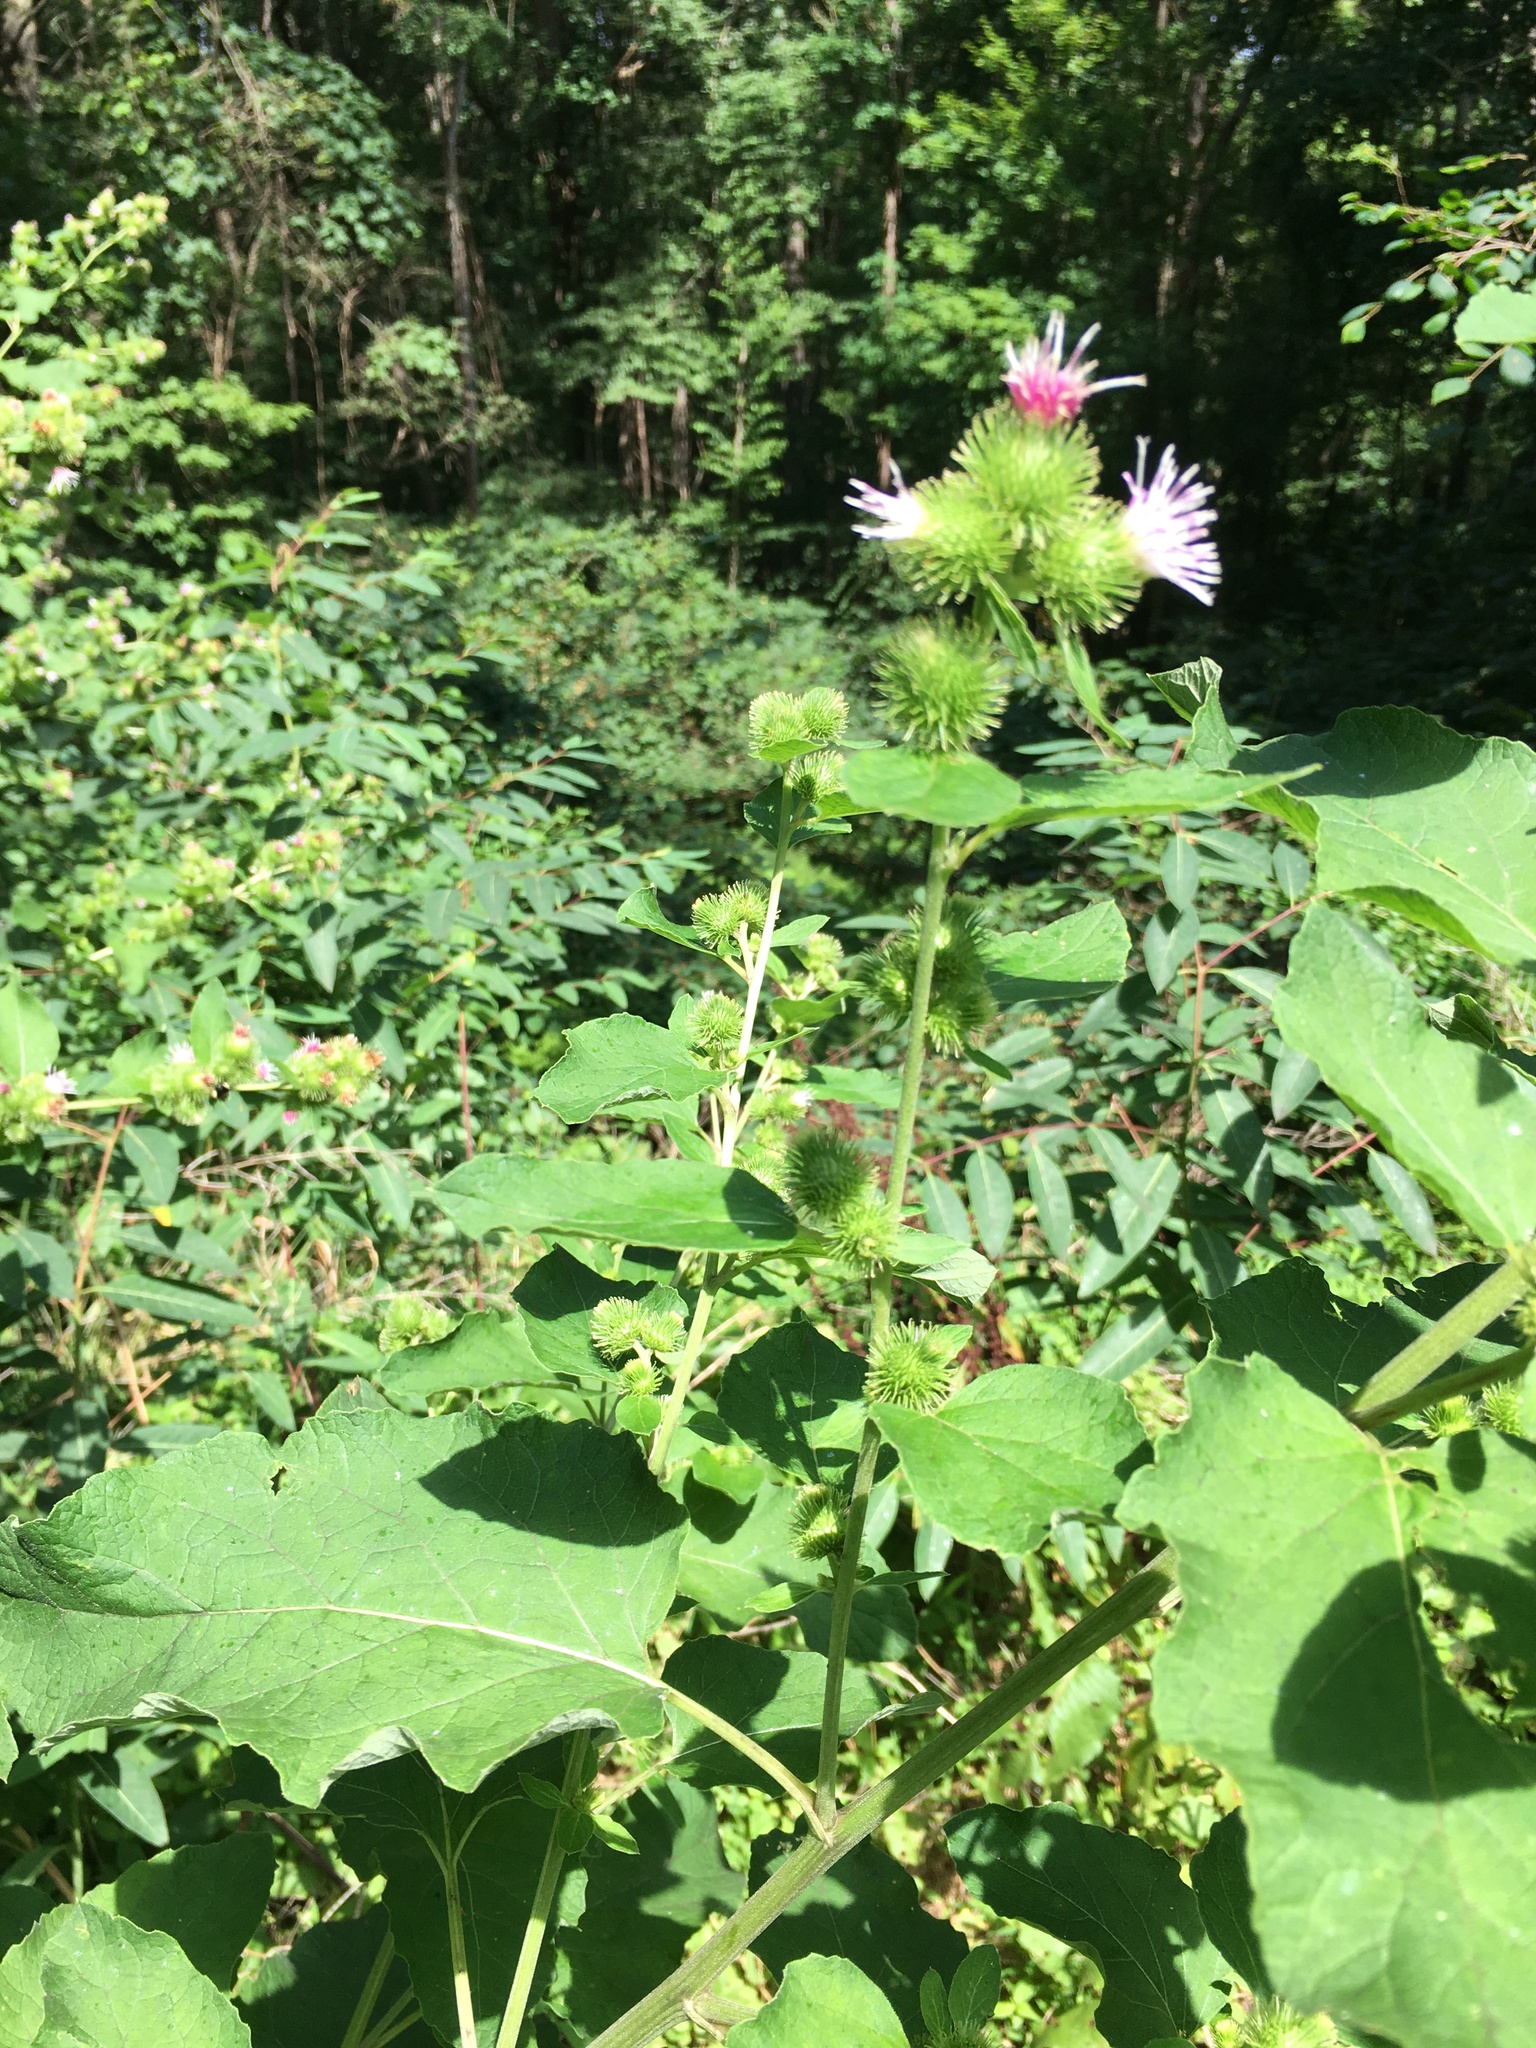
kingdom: Plantae
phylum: Tracheophyta
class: Magnoliopsida
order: Asterales
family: Asteraceae
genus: Arctium
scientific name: Arctium minus
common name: Lesser burdock
